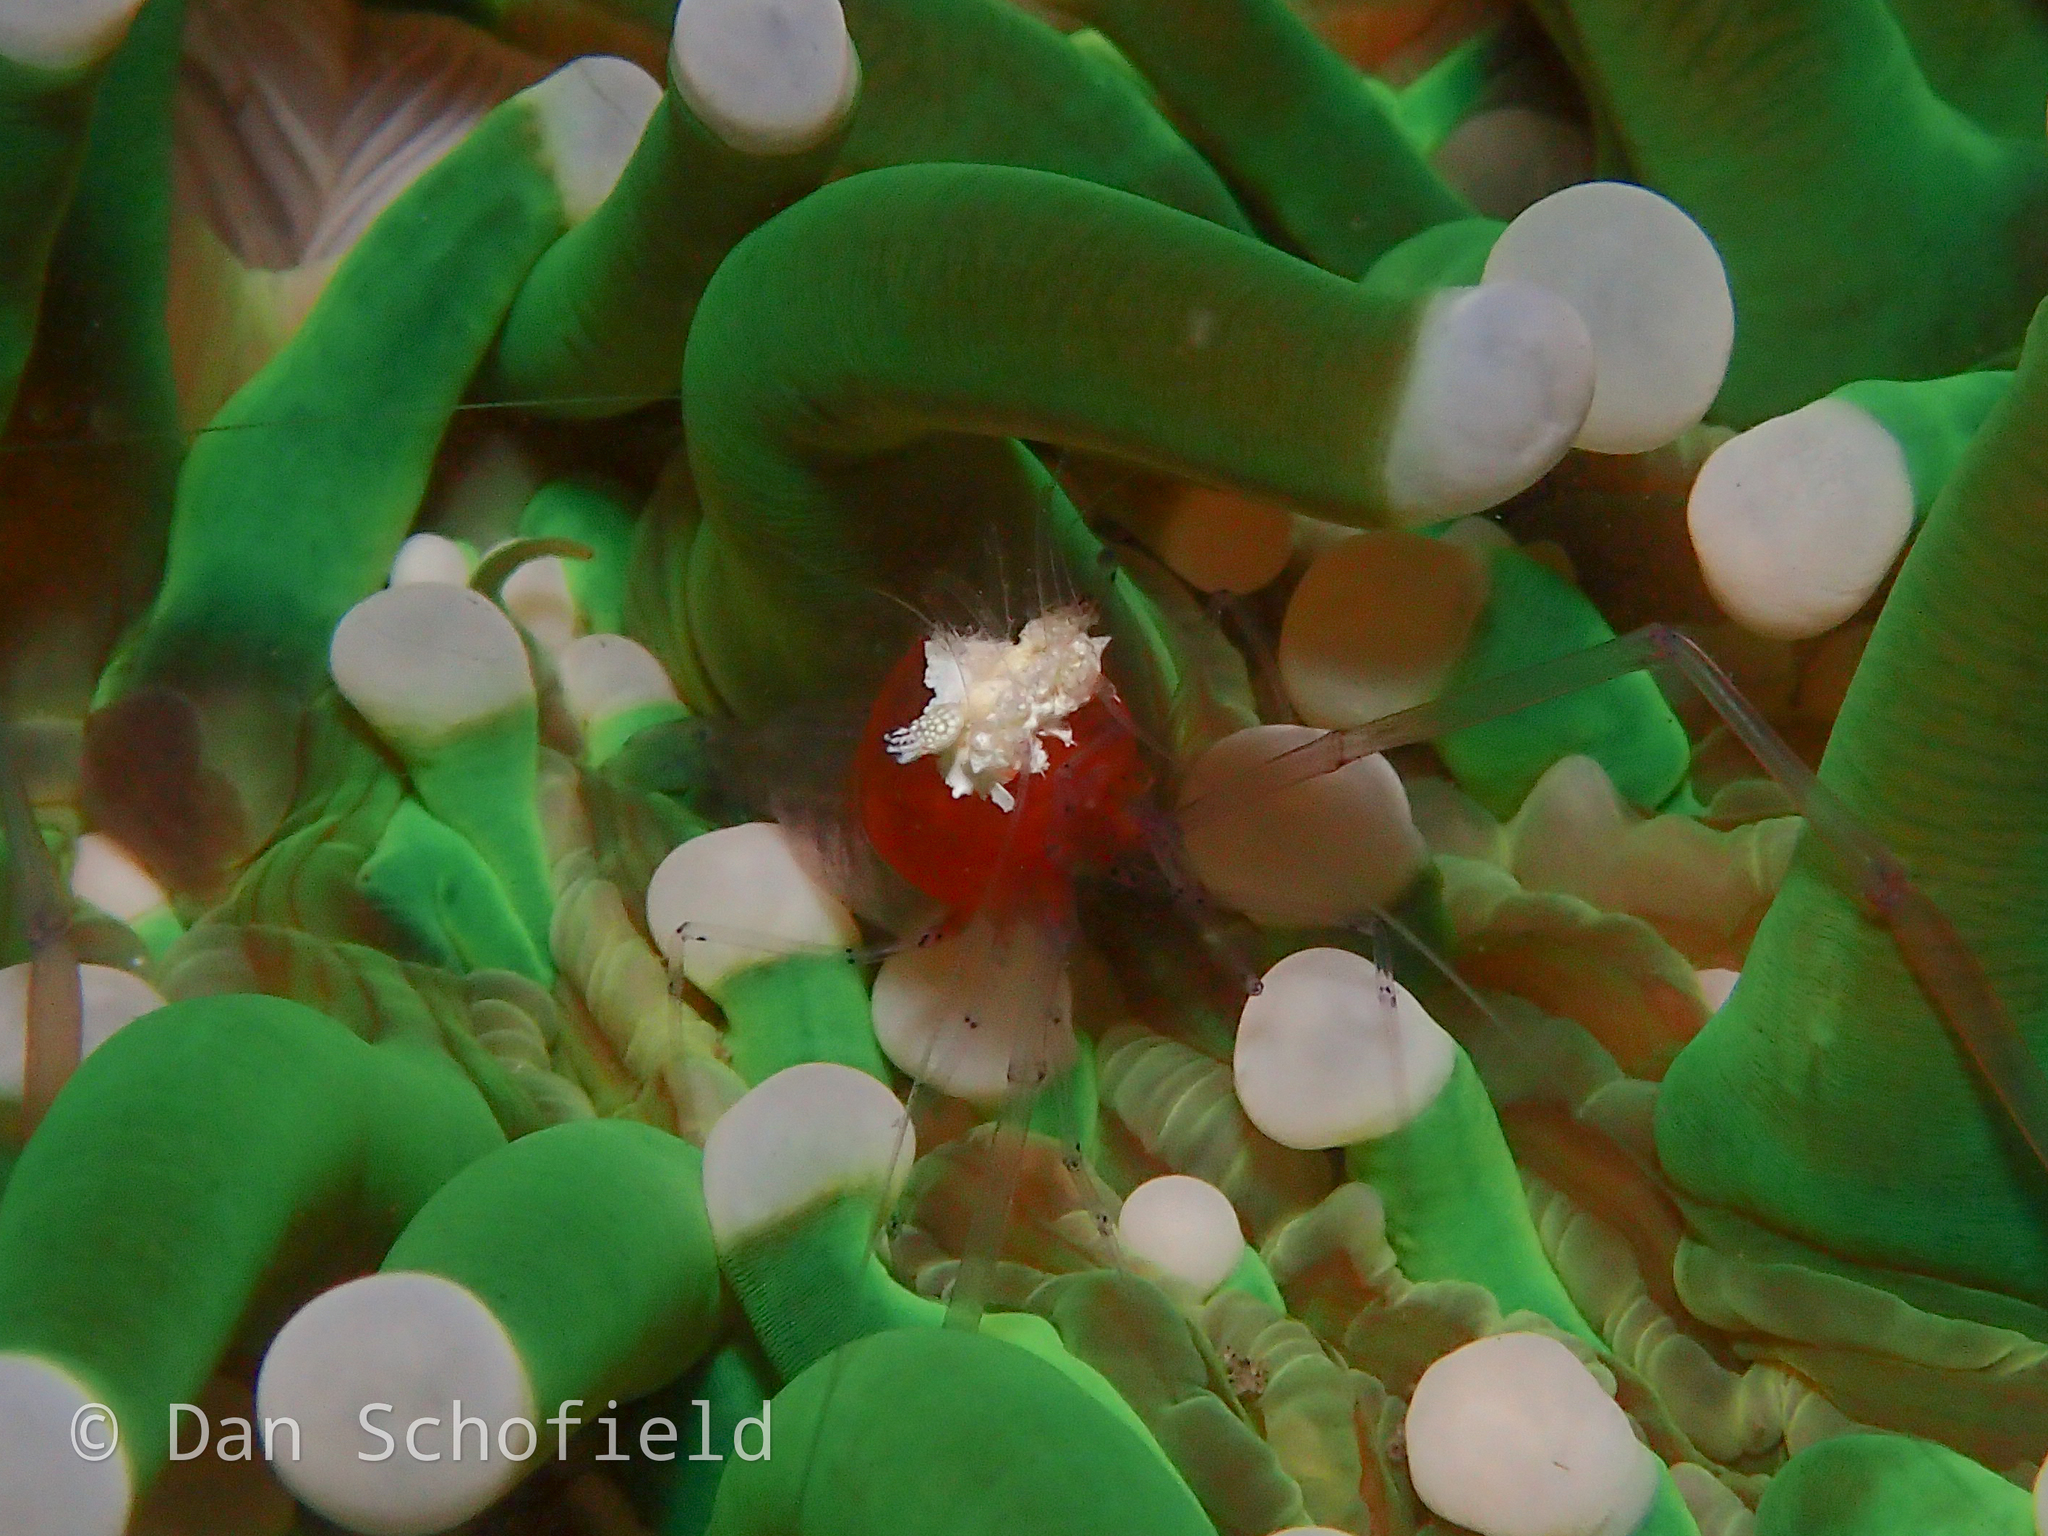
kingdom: Animalia
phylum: Arthropoda
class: Malacostraca
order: Decapoda
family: Palaemonidae
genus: Cuapetes
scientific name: Cuapetes kororensis
